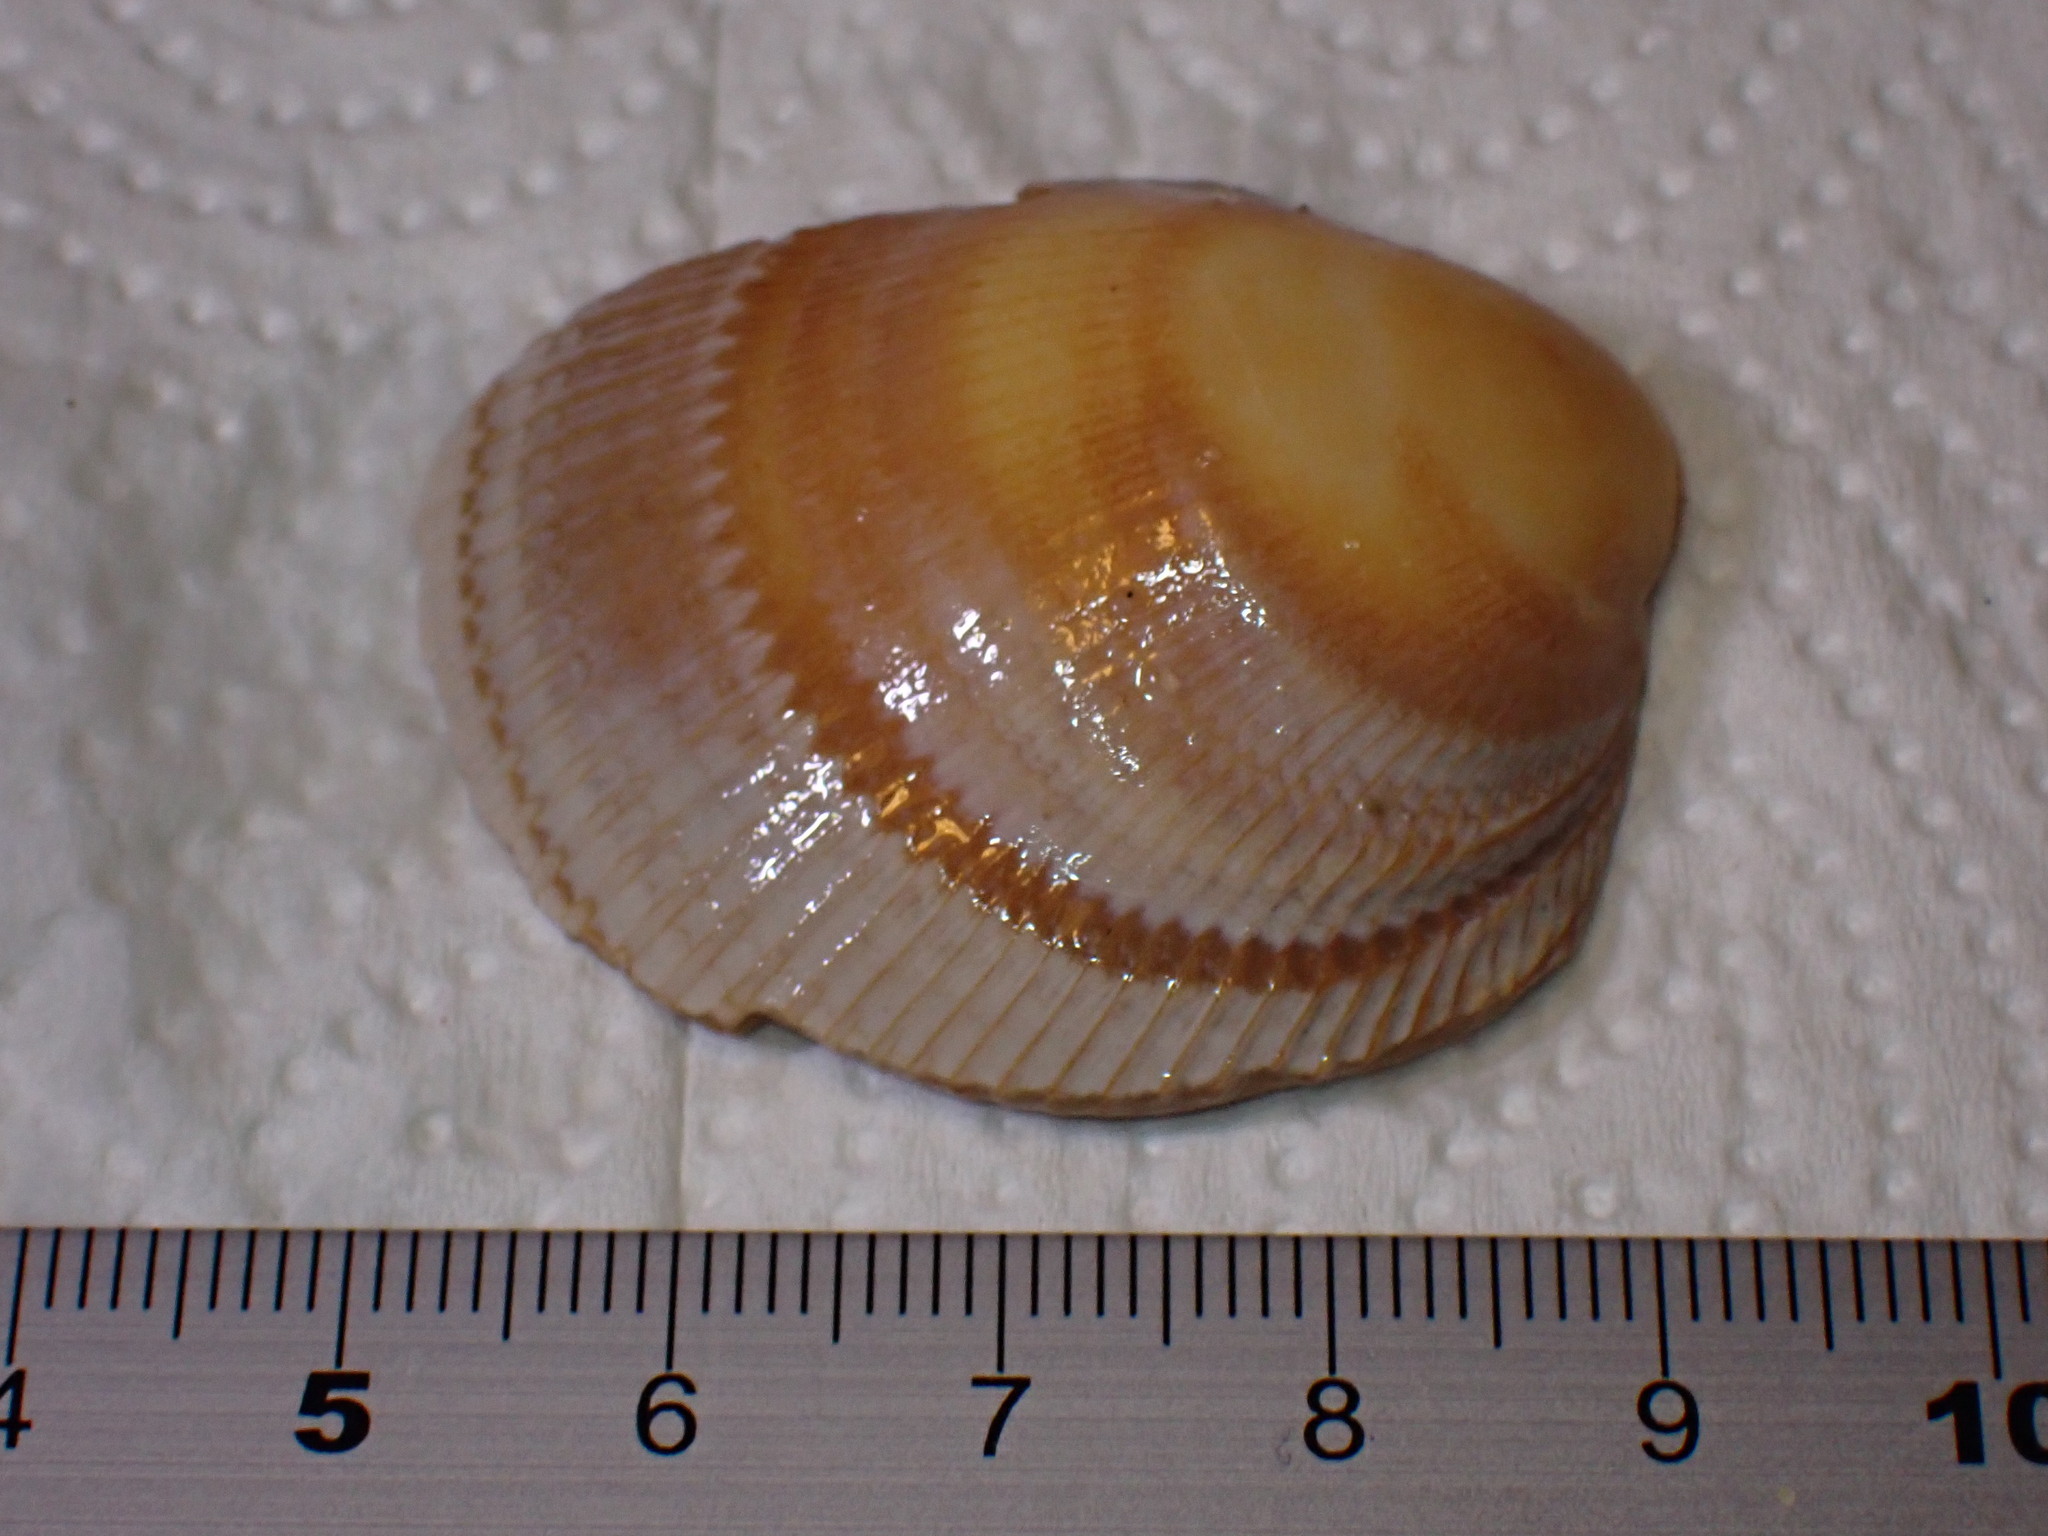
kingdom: Animalia
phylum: Mollusca
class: Bivalvia
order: Cardiida
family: Cardiidae
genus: Laevicardium
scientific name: Laevicardium crassum
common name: Norway cockle
